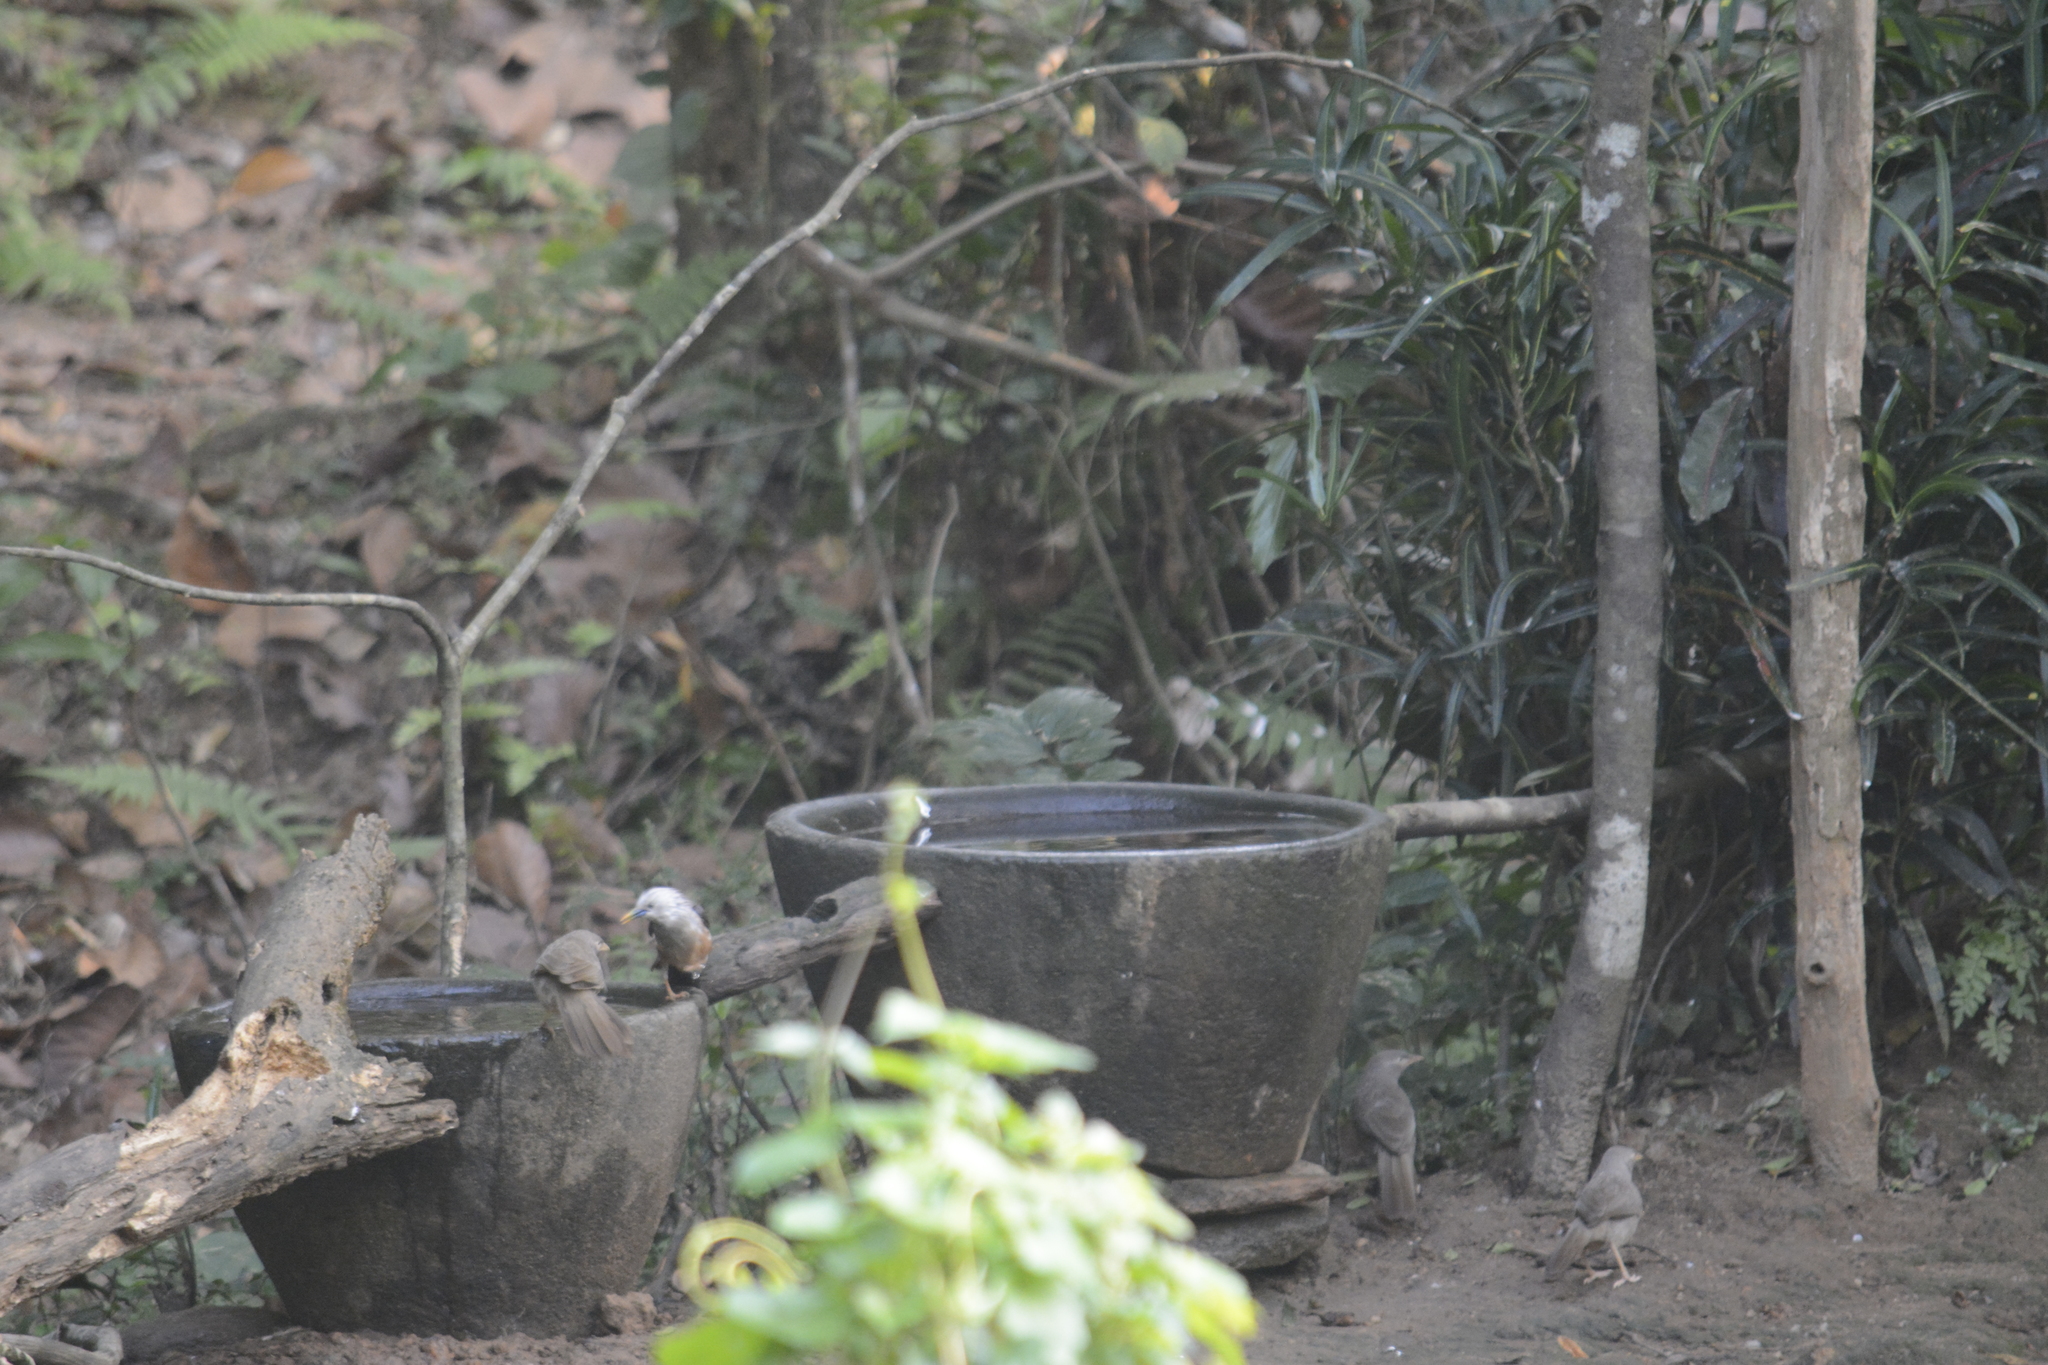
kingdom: Animalia
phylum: Chordata
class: Aves
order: Passeriformes
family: Sturnidae
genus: Sturnia
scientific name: Sturnia blythii
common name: Malabar starling
